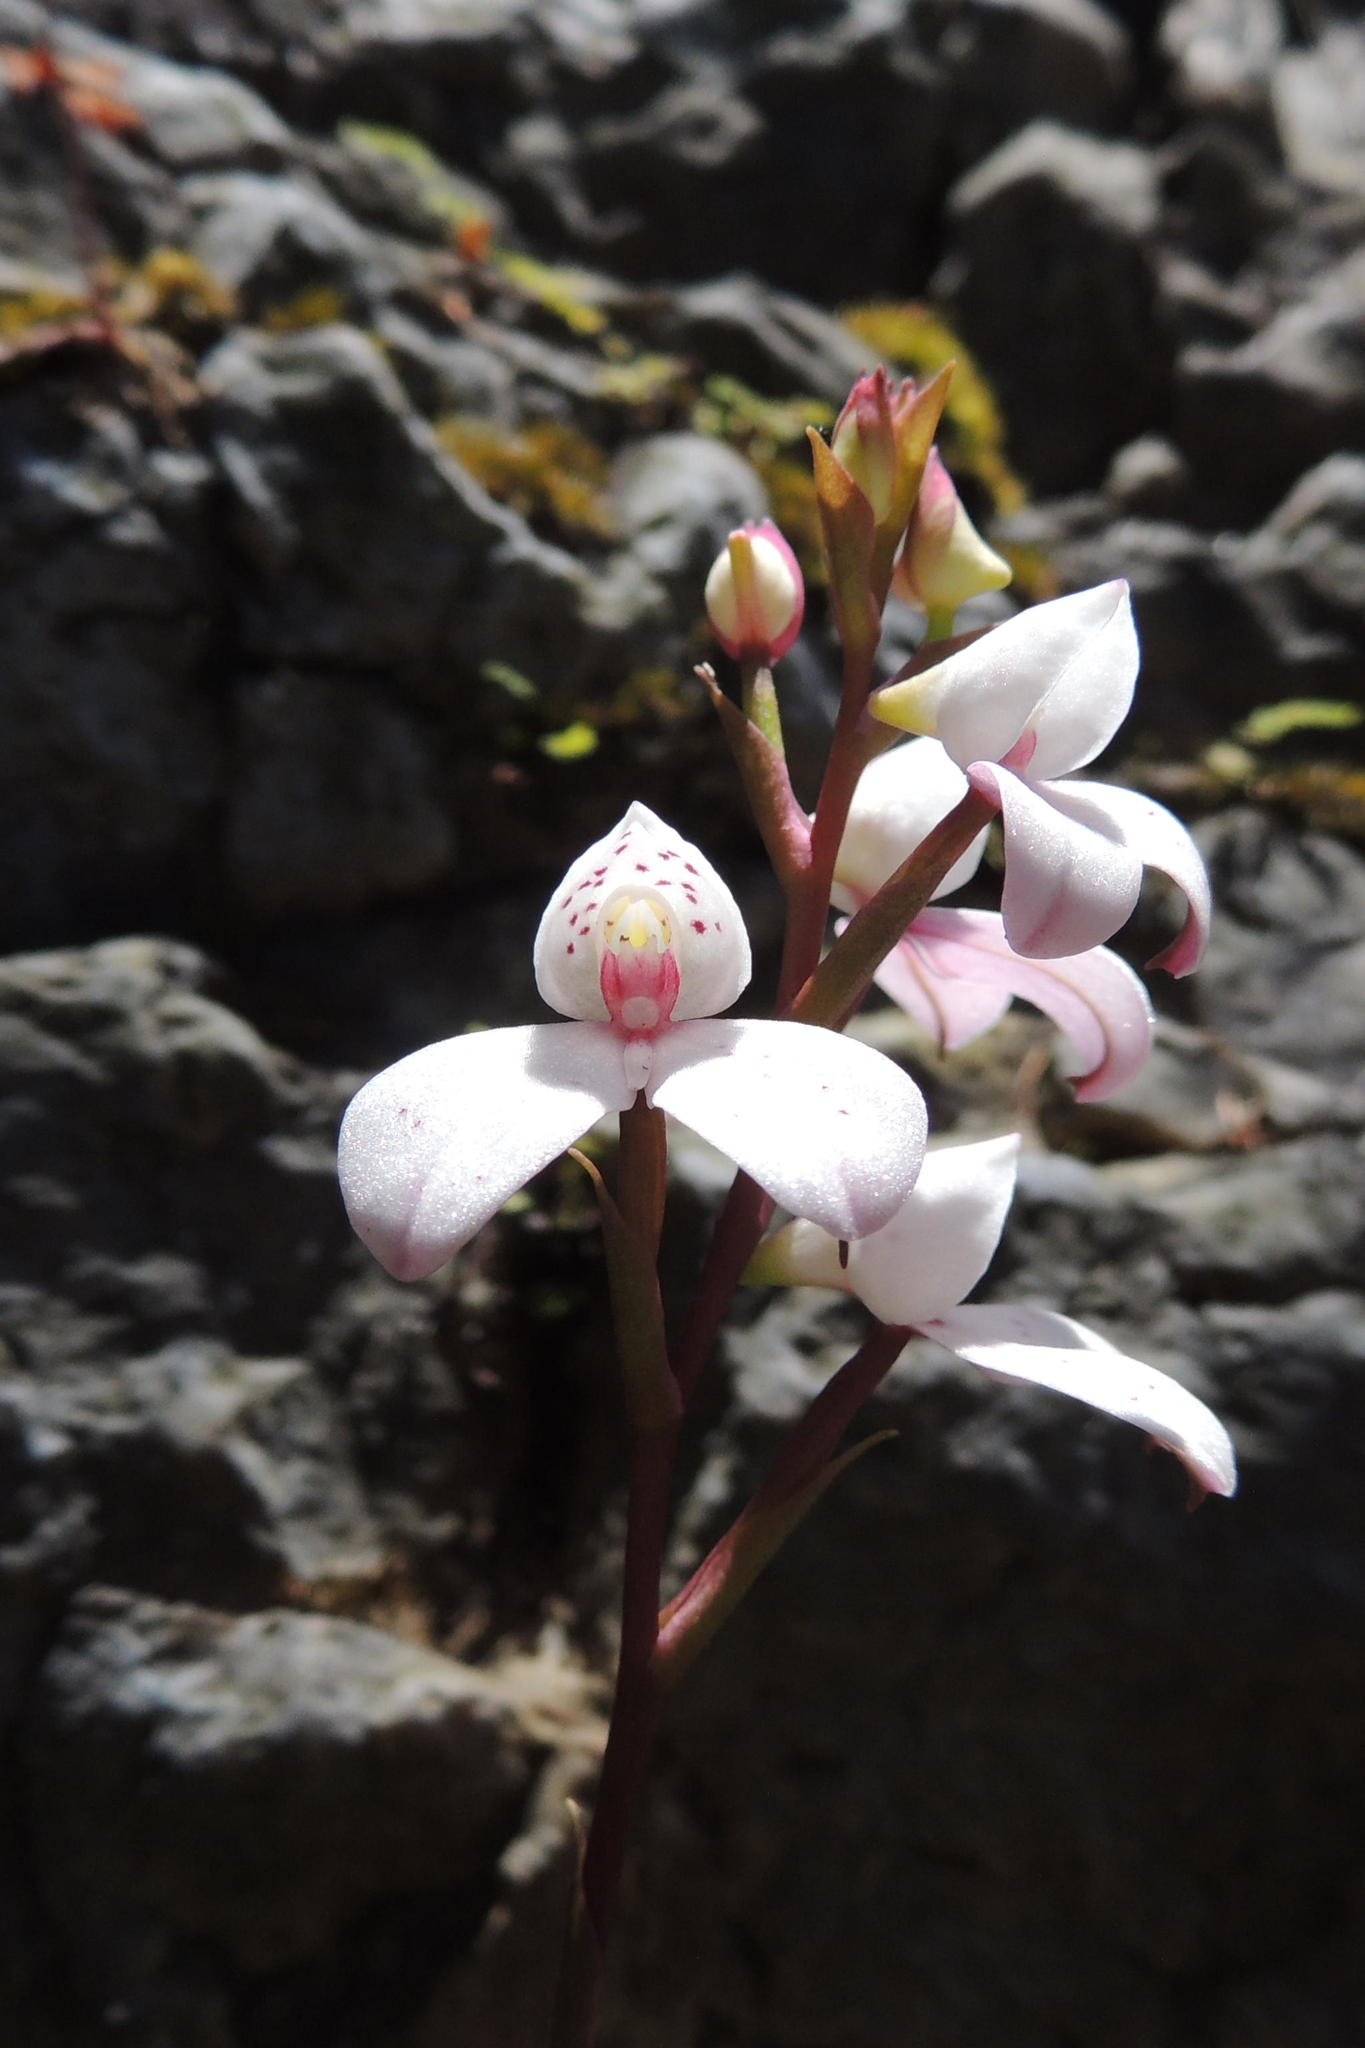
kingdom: Plantae
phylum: Tracheophyta
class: Liliopsida
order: Asparagales
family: Orchidaceae
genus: Disa
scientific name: Disa tripetaloides
